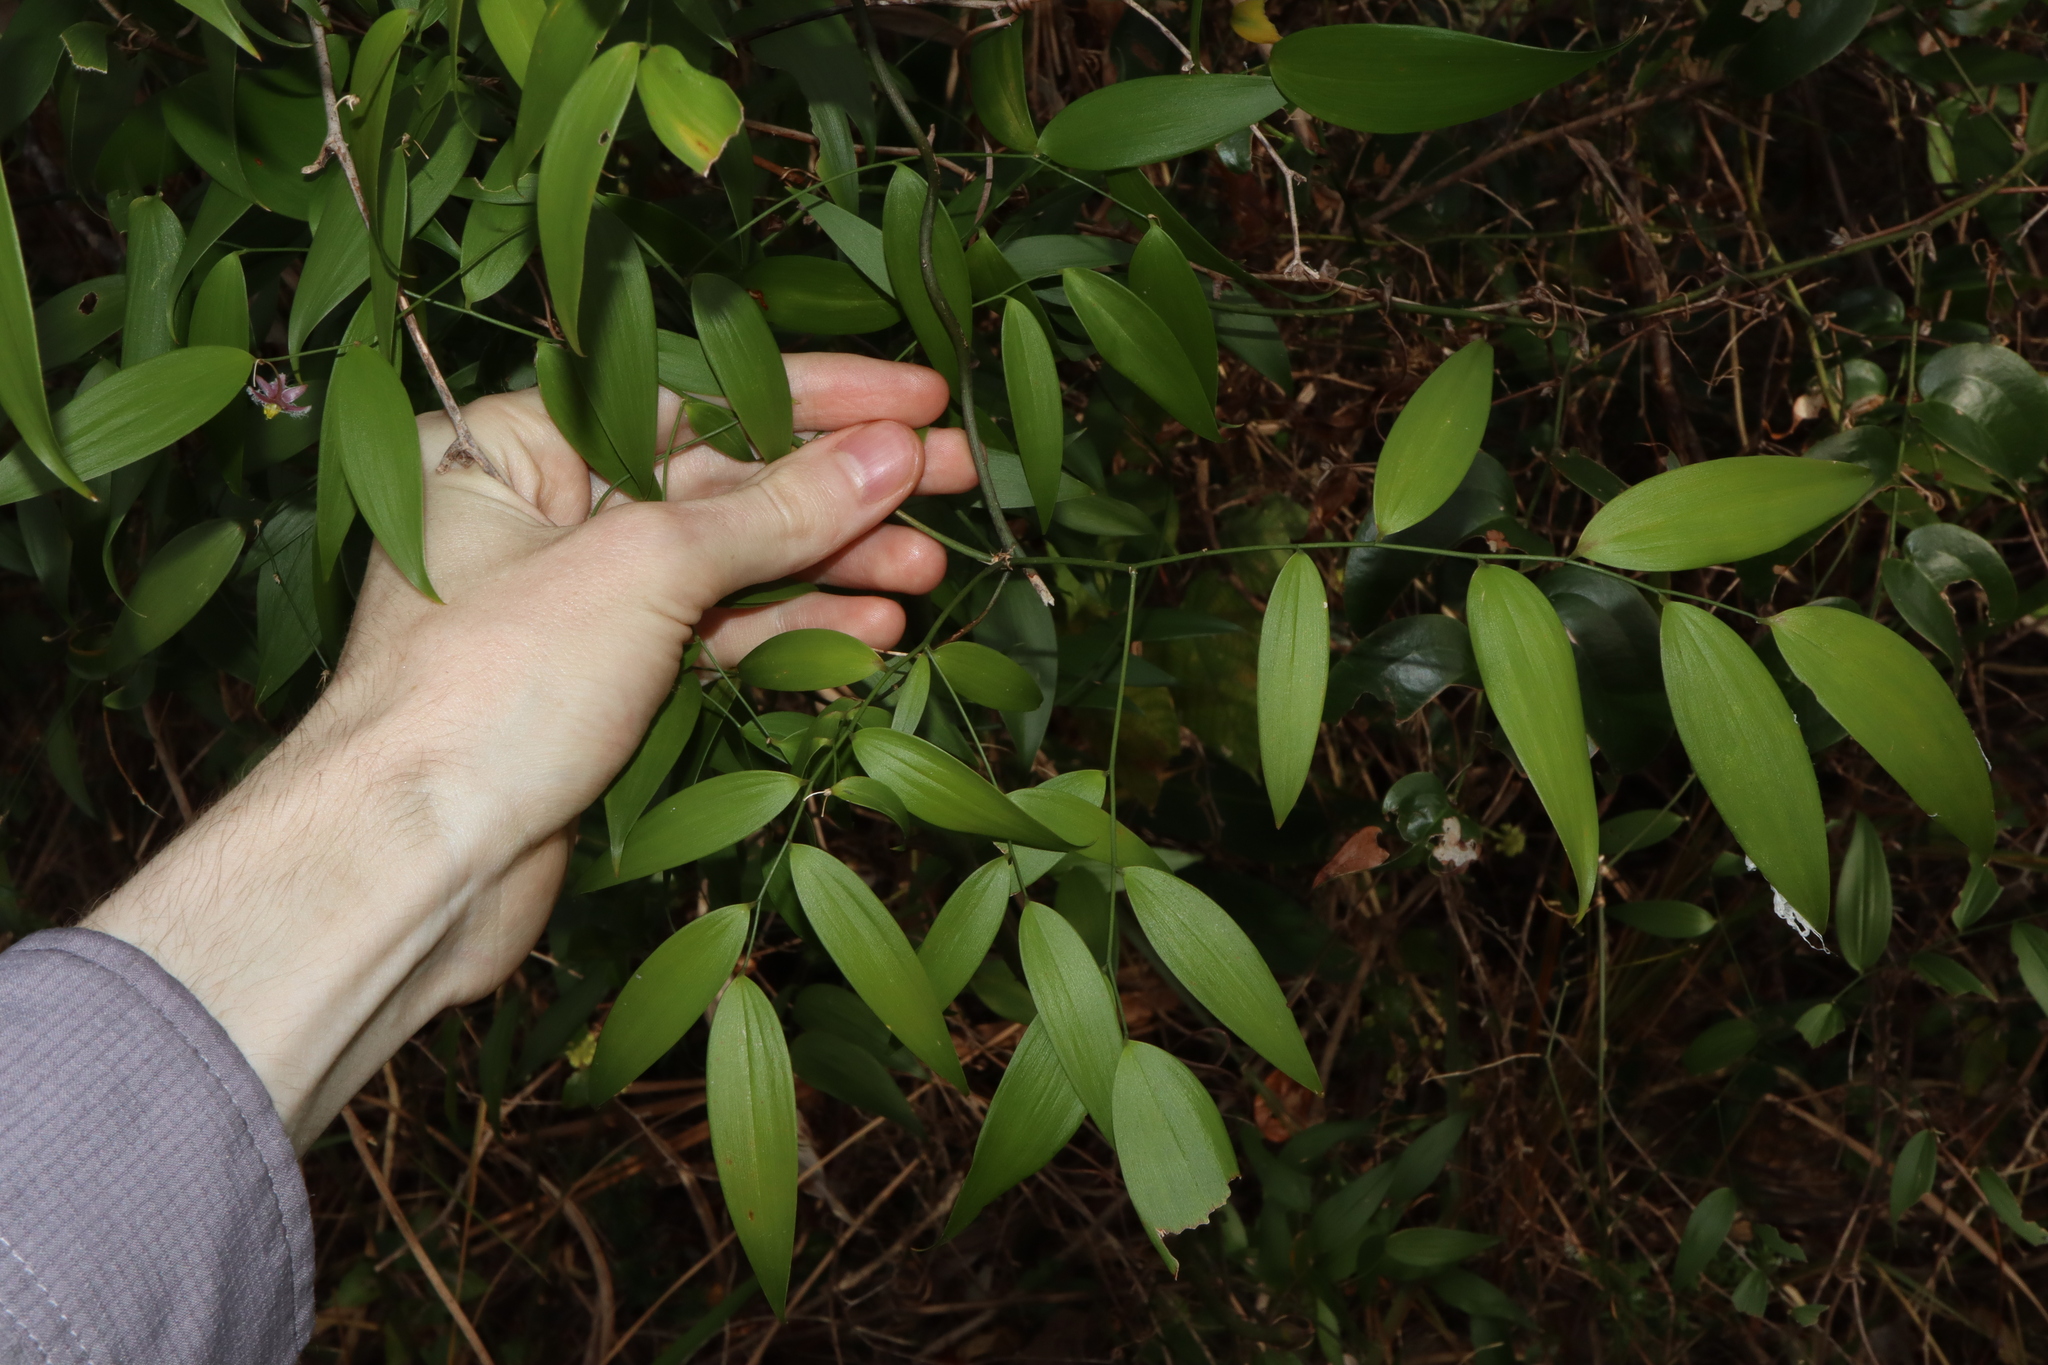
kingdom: Plantae
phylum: Tracheophyta
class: Liliopsida
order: Asparagales
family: Asparagaceae
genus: Eustrephus
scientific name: Eustrephus latifolius
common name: Orangevine
